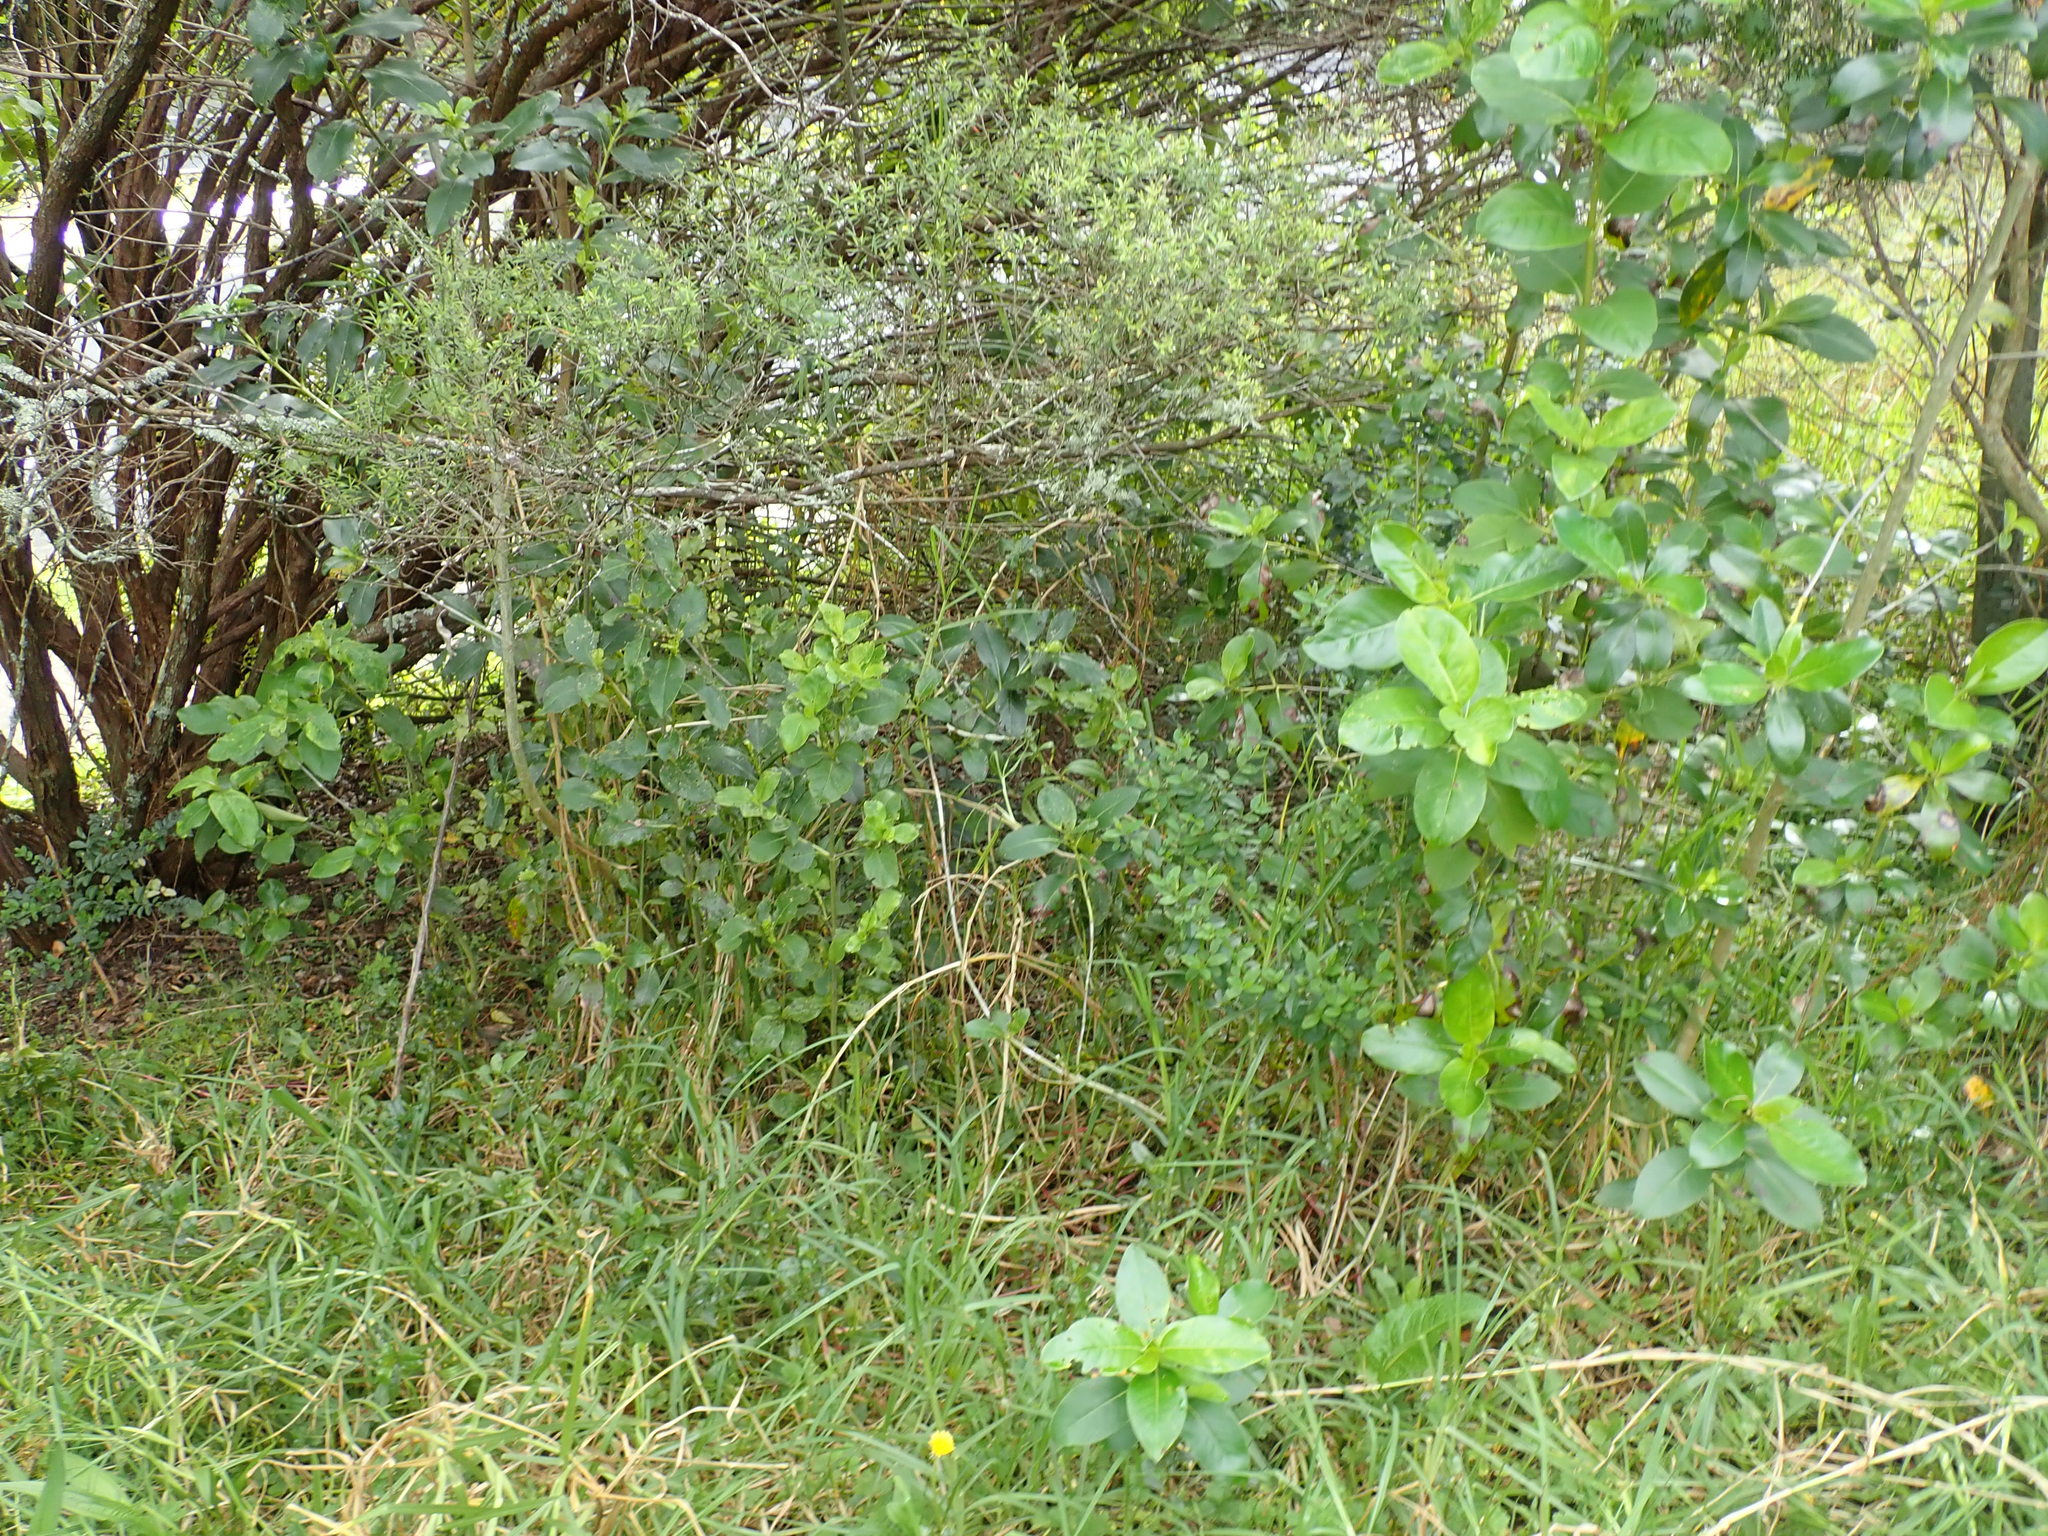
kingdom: Plantae
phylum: Tracheophyta
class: Magnoliopsida
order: Gentianales
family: Rubiaceae
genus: Coprosma
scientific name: Coprosma macrocarpa
